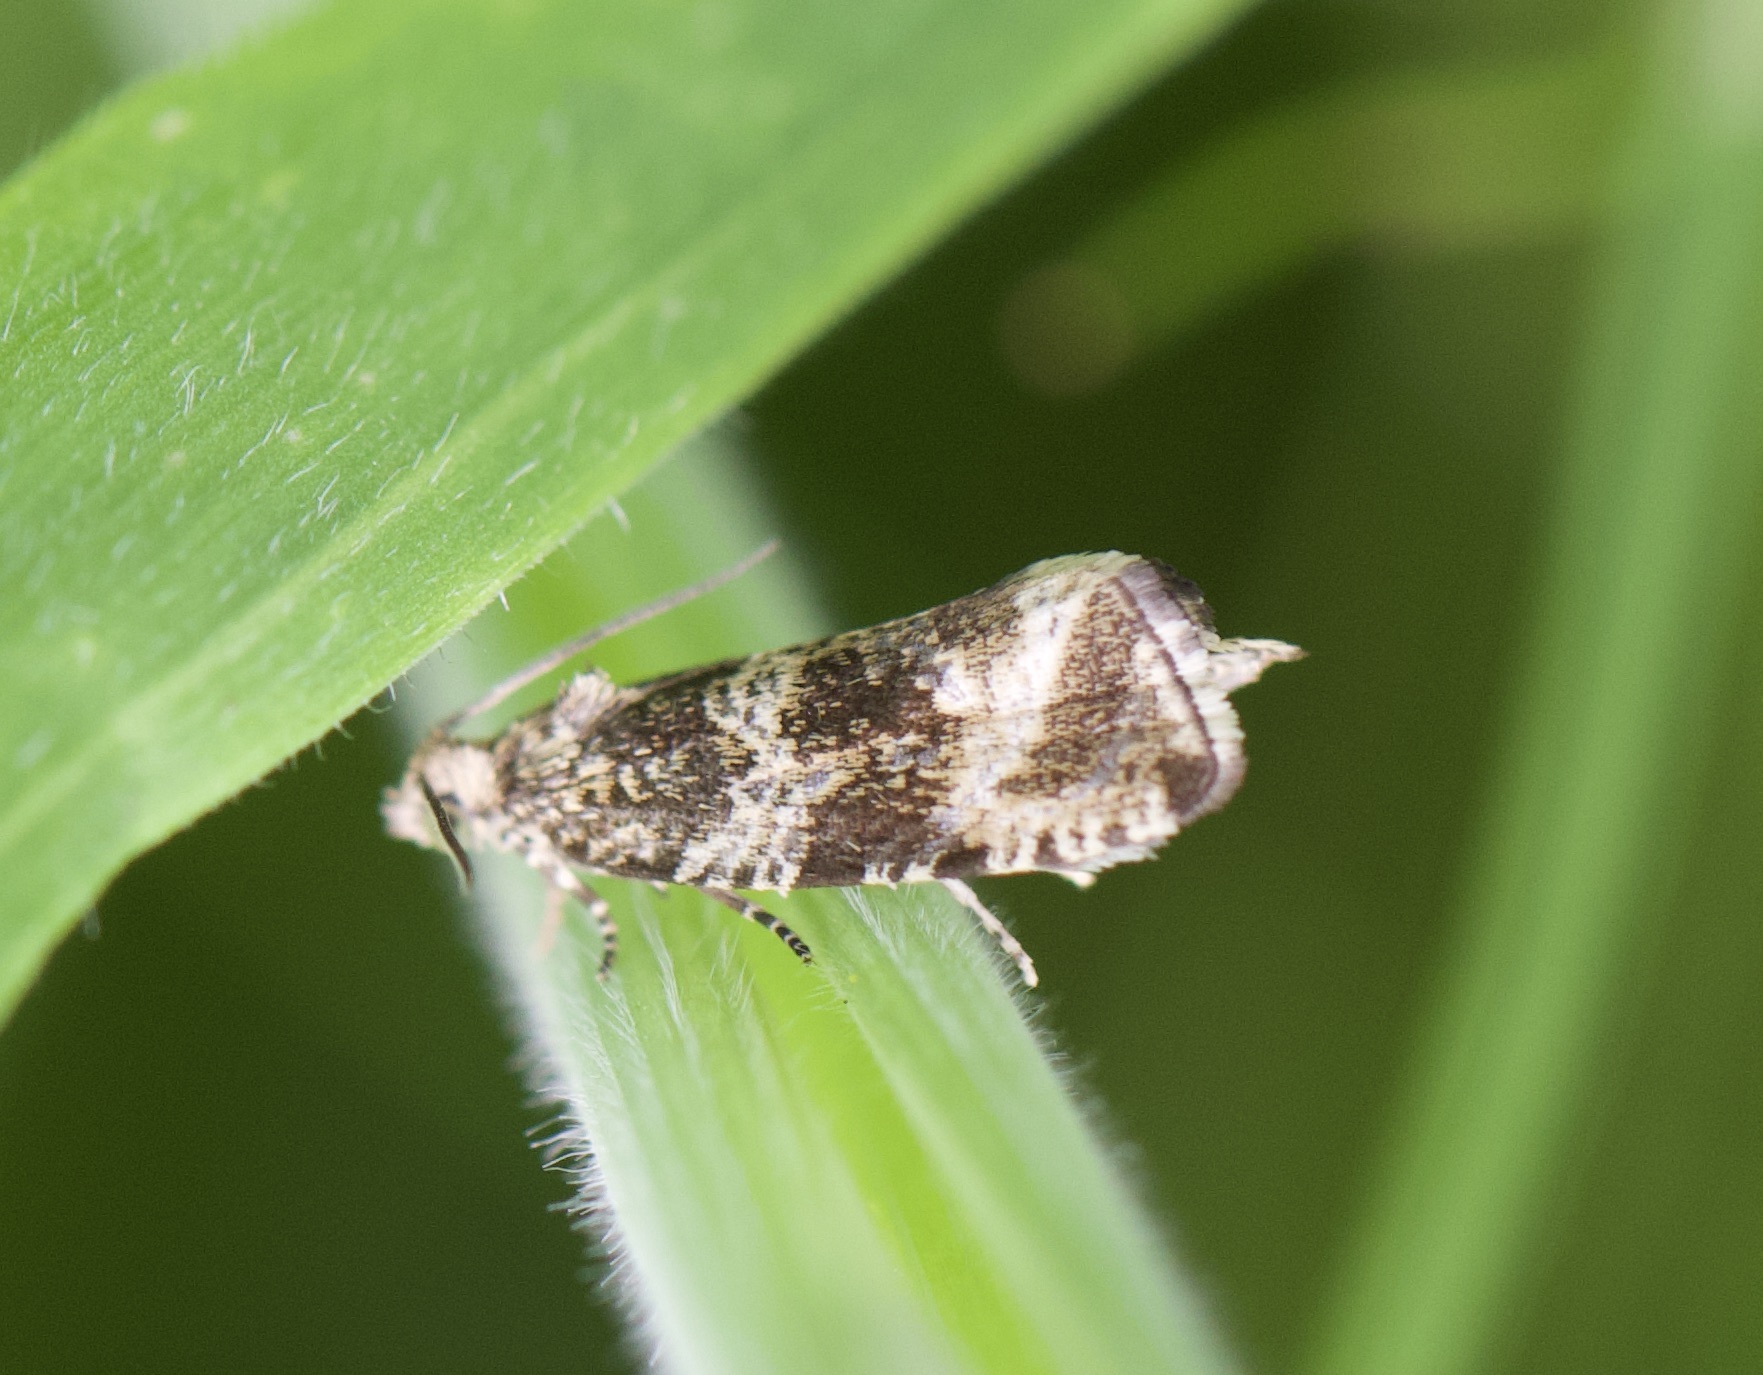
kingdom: Animalia
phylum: Arthropoda
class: Insecta
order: Lepidoptera
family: Tortricidae
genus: Syricoris
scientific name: Syricoris lacunana
